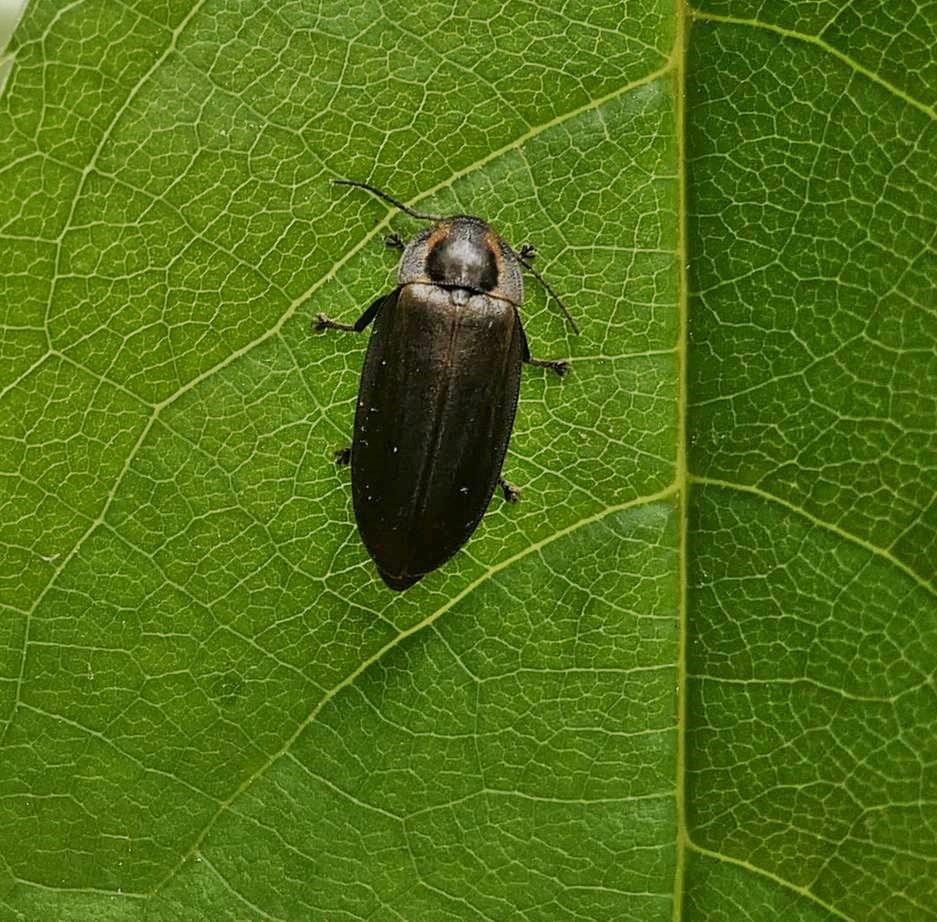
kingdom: Animalia
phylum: Arthropoda
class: Insecta
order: Coleoptera
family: Lampyridae
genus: Photinus
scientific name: Photinus corrusca
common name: Winter firefly
